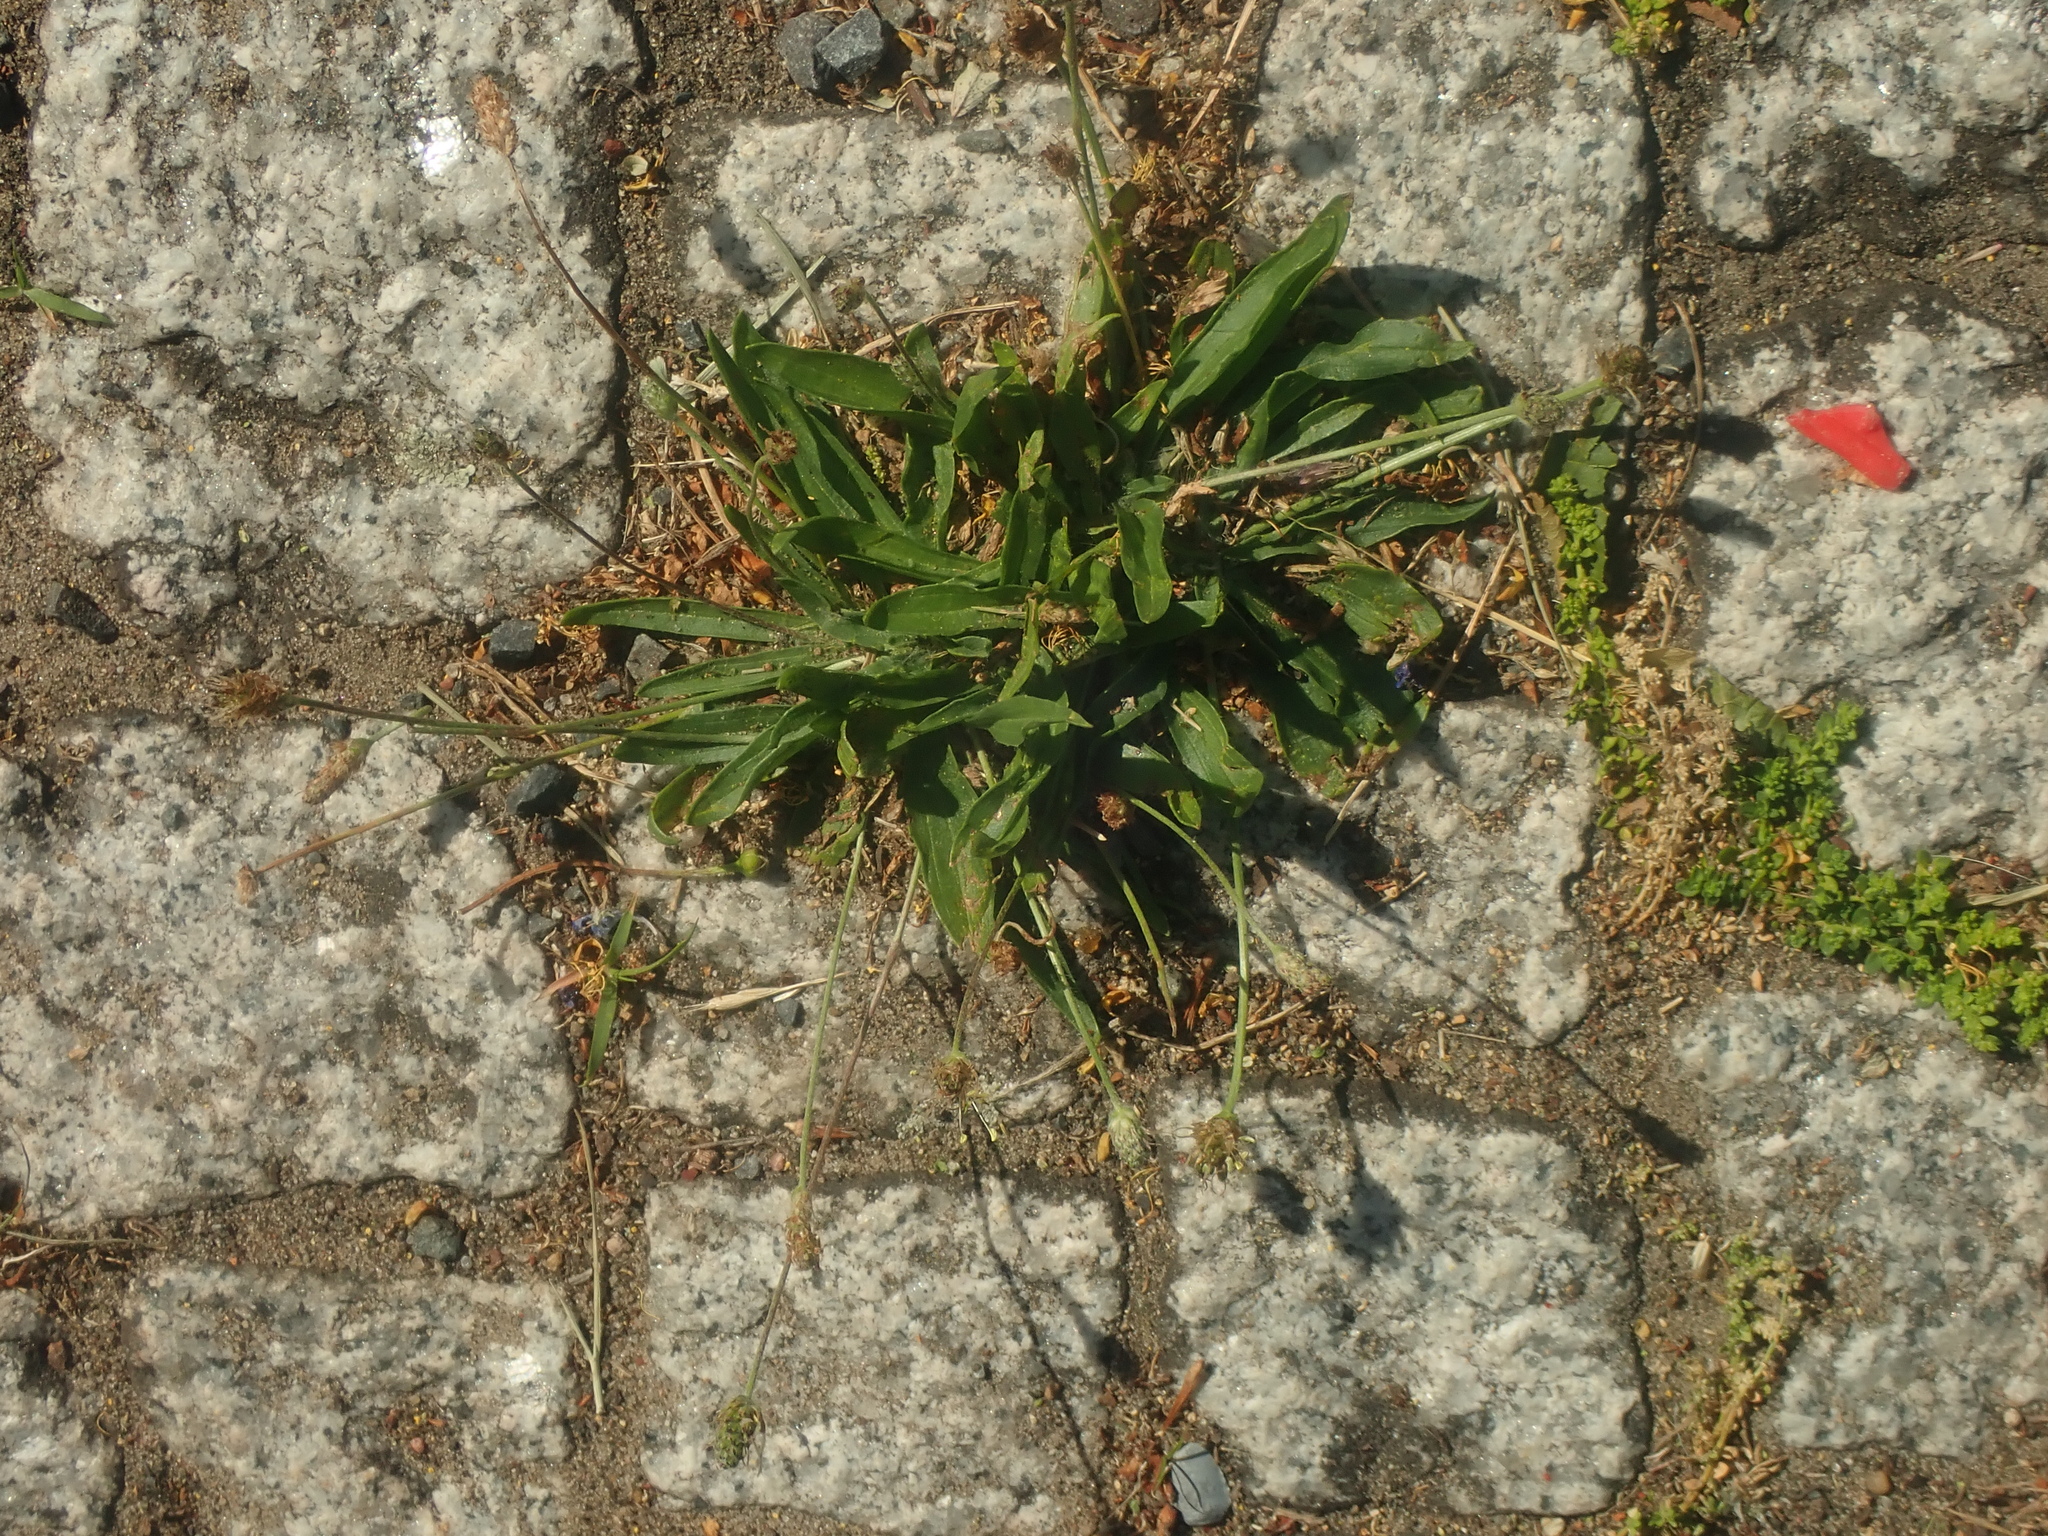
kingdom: Plantae
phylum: Tracheophyta
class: Magnoliopsida
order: Lamiales
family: Plantaginaceae
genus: Plantago
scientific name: Plantago lanceolata
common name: Ribwort plantain
